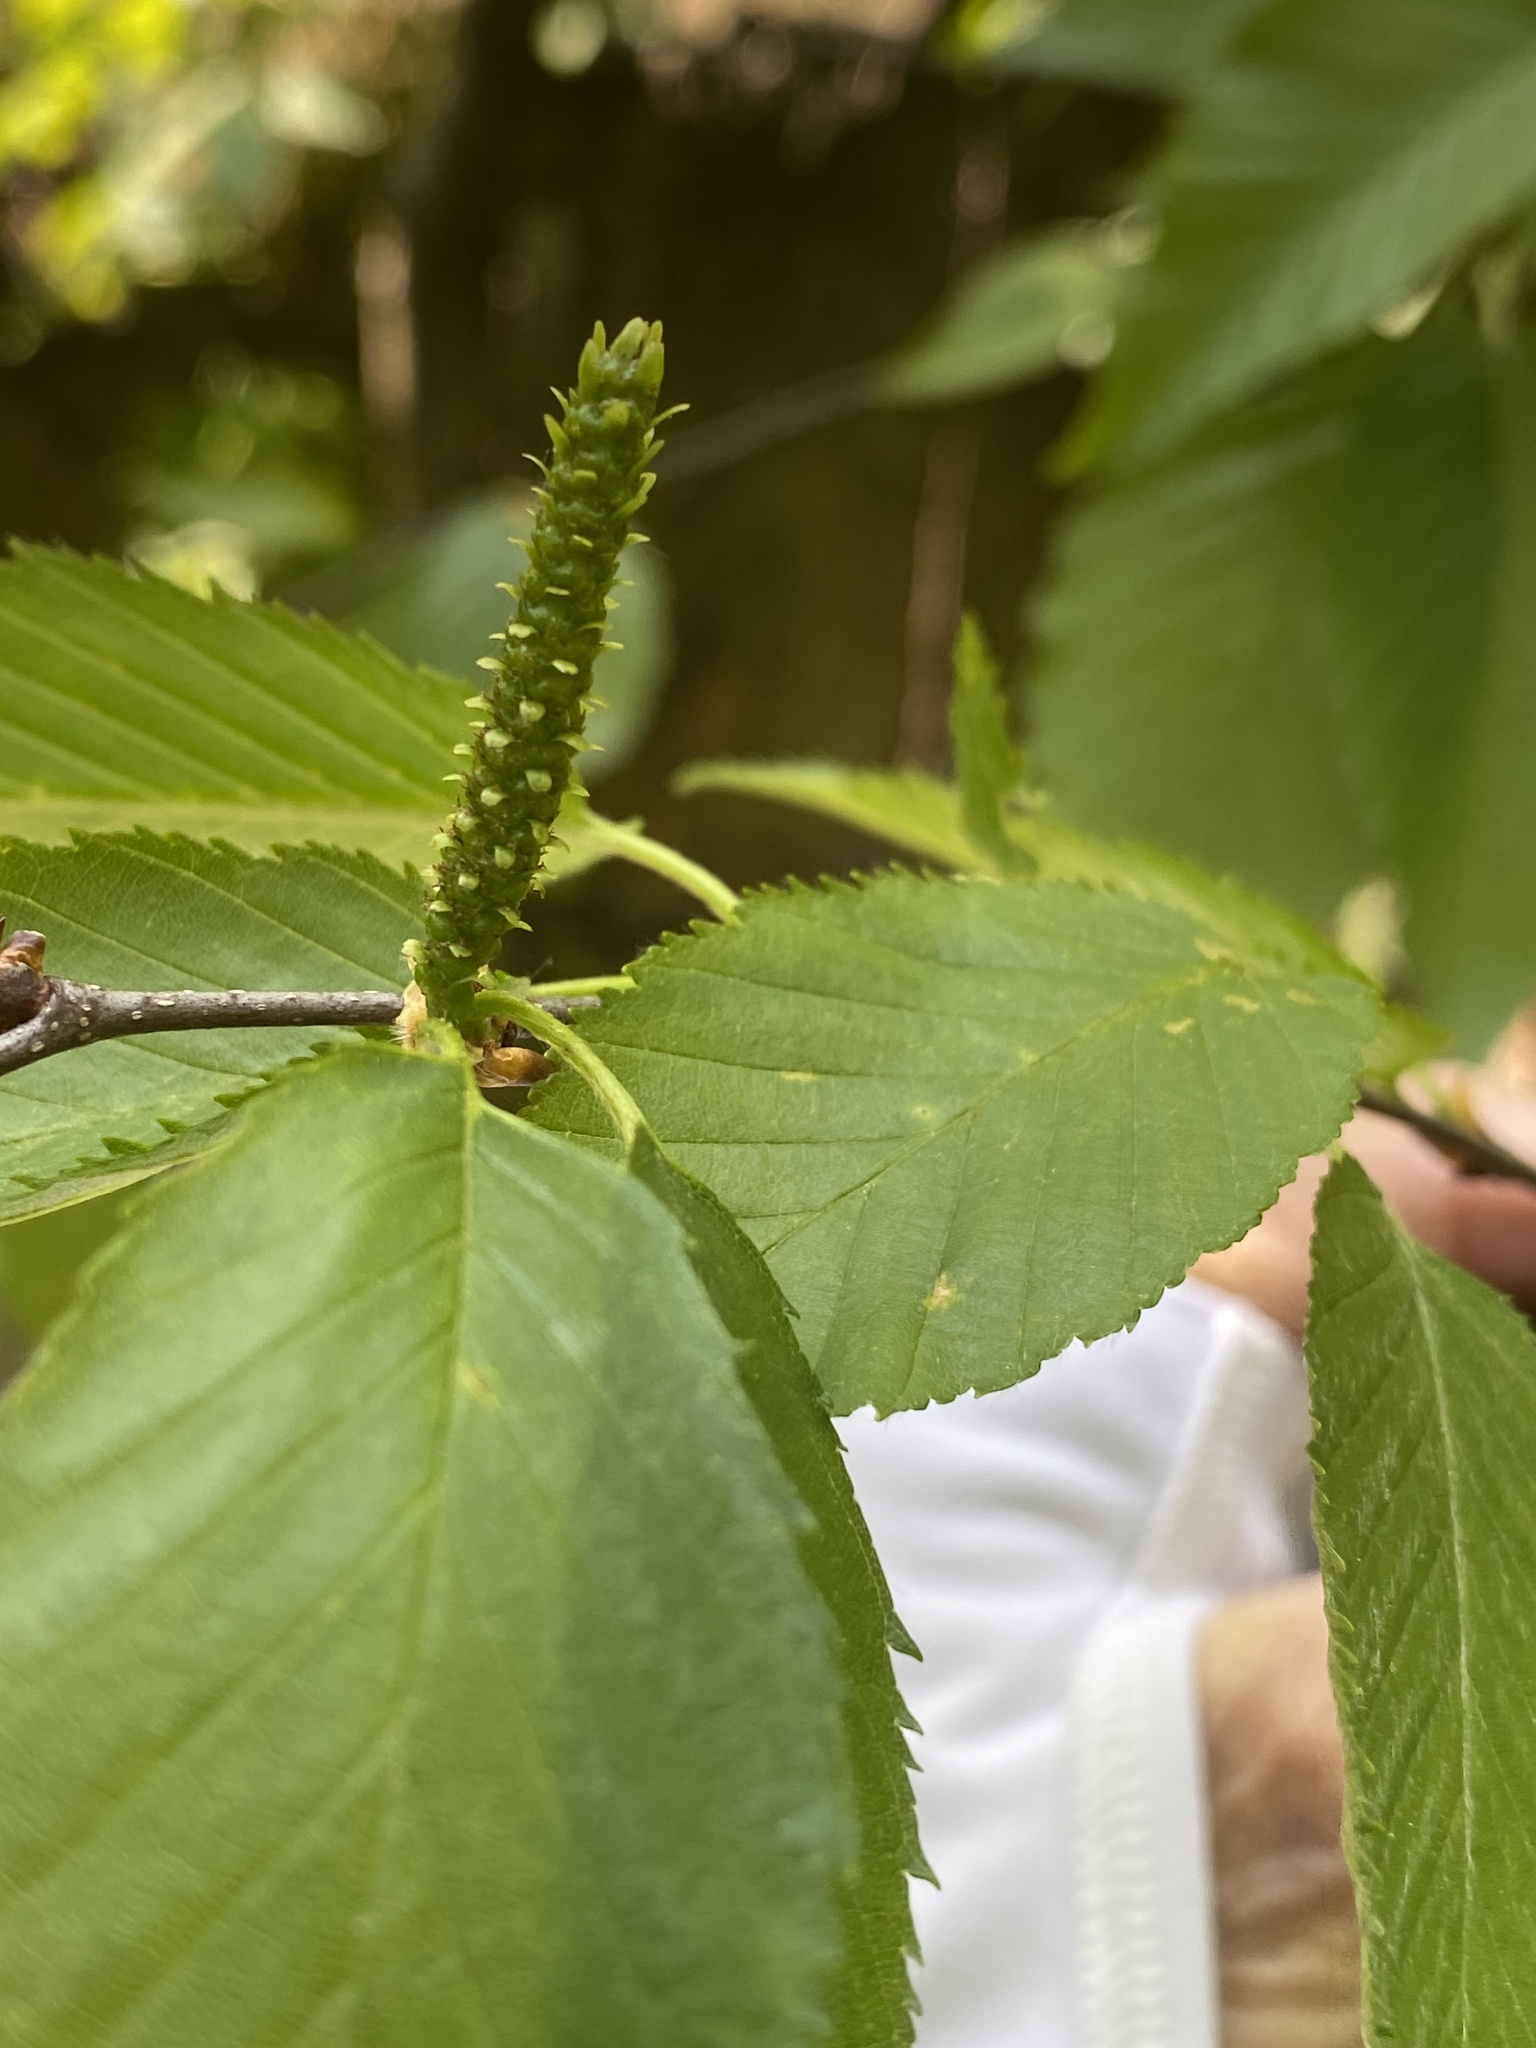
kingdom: Plantae
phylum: Tracheophyta
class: Magnoliopsida
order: Fagales
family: Betulaceae
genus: Betula
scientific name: Betula lenta
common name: Black birch
